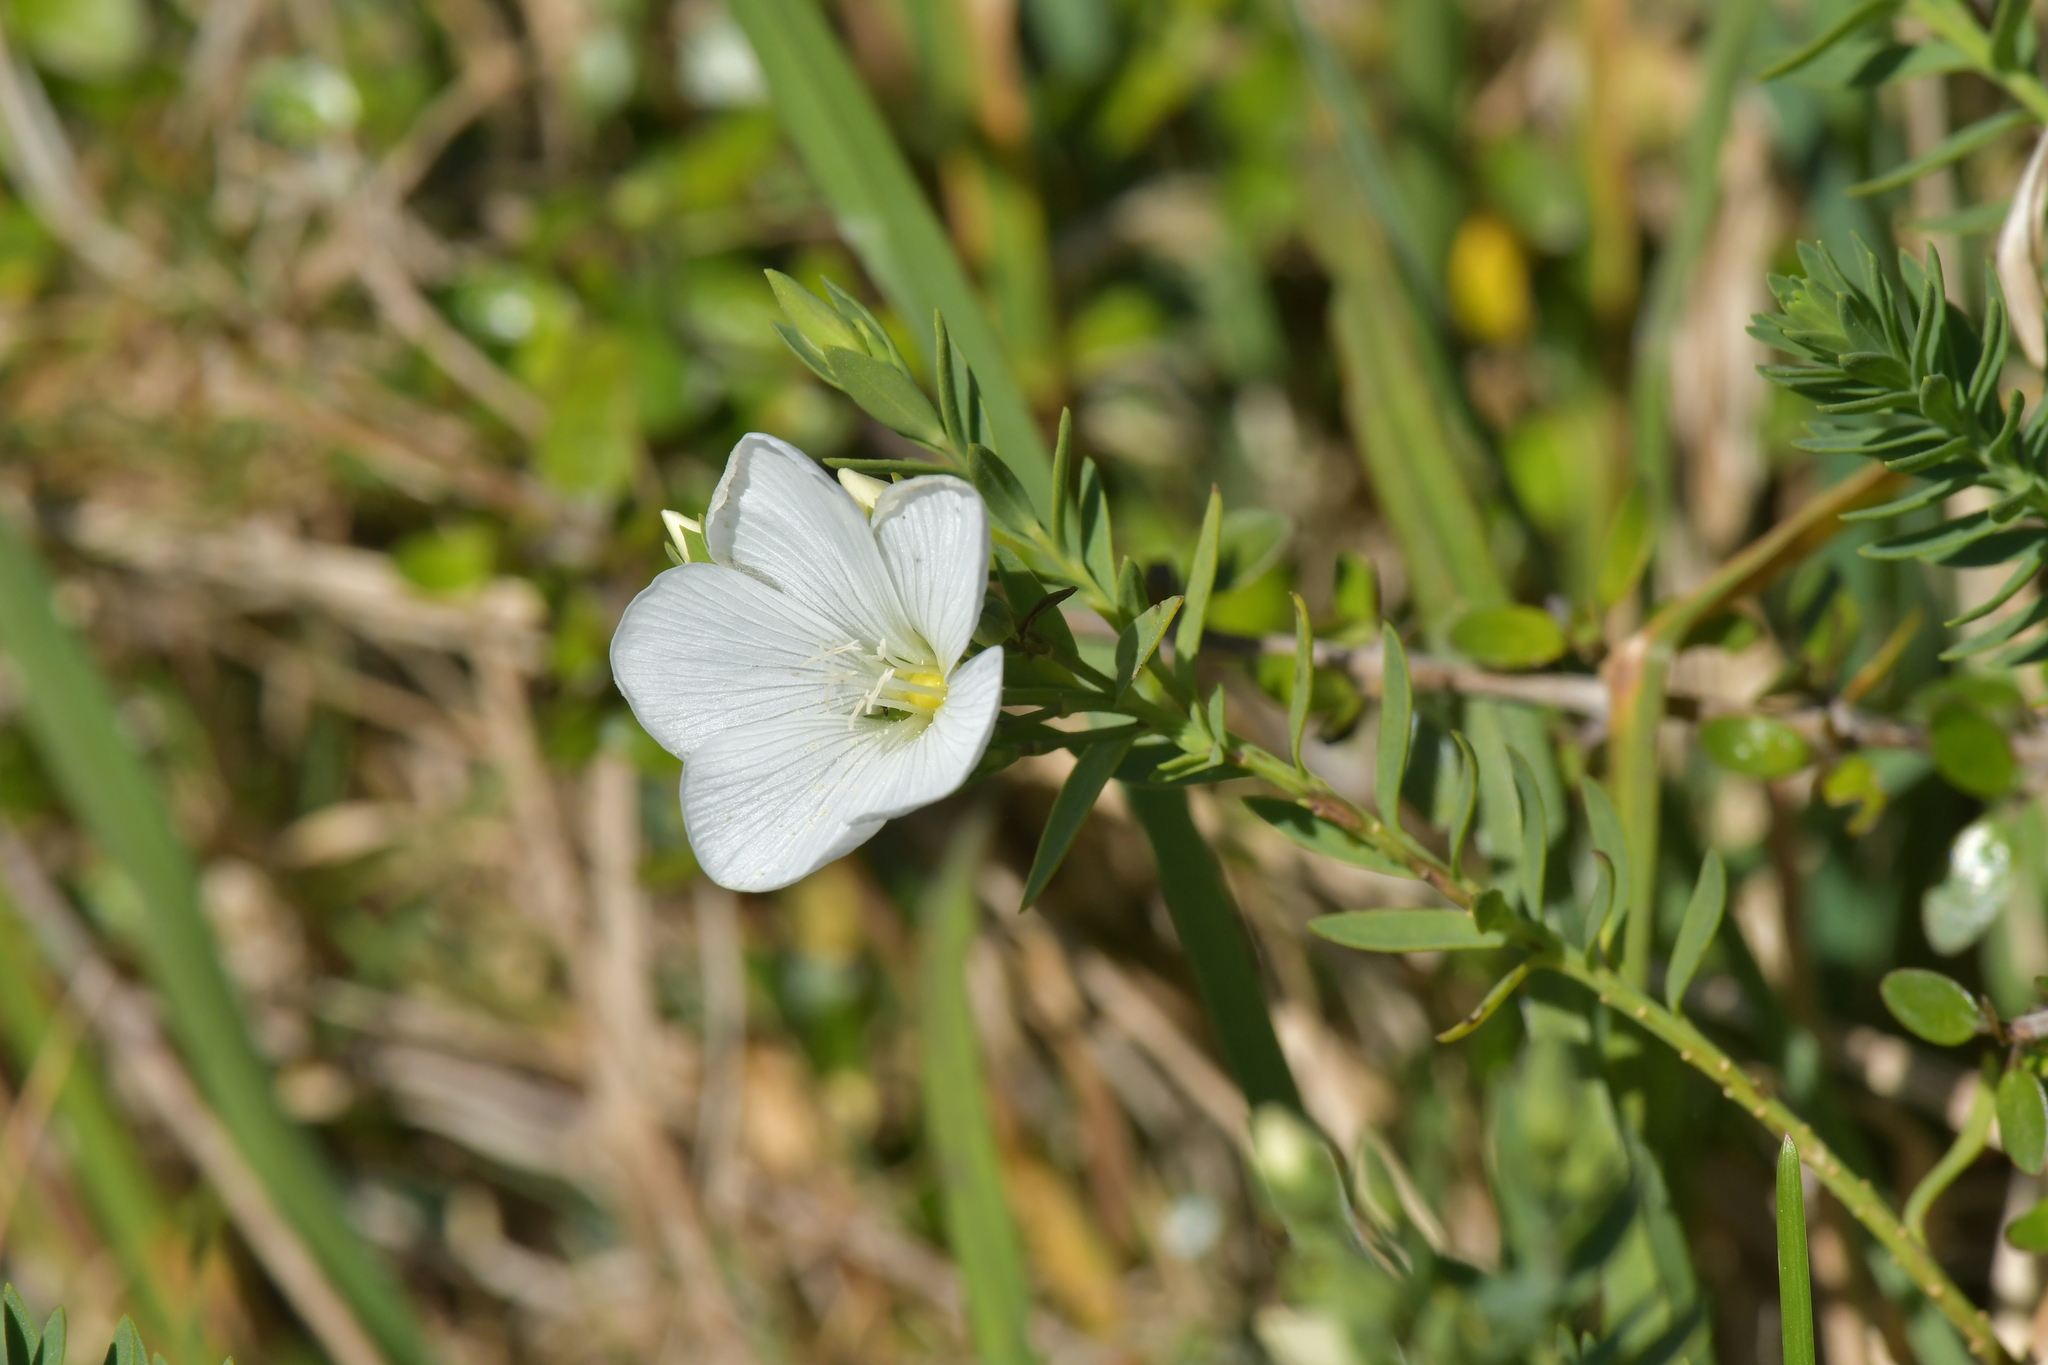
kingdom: Plantae
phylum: Tracheophyta
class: Magnoliopsida
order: Malpighiales
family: Linaceae
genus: Linum
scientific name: Linum monogynum
